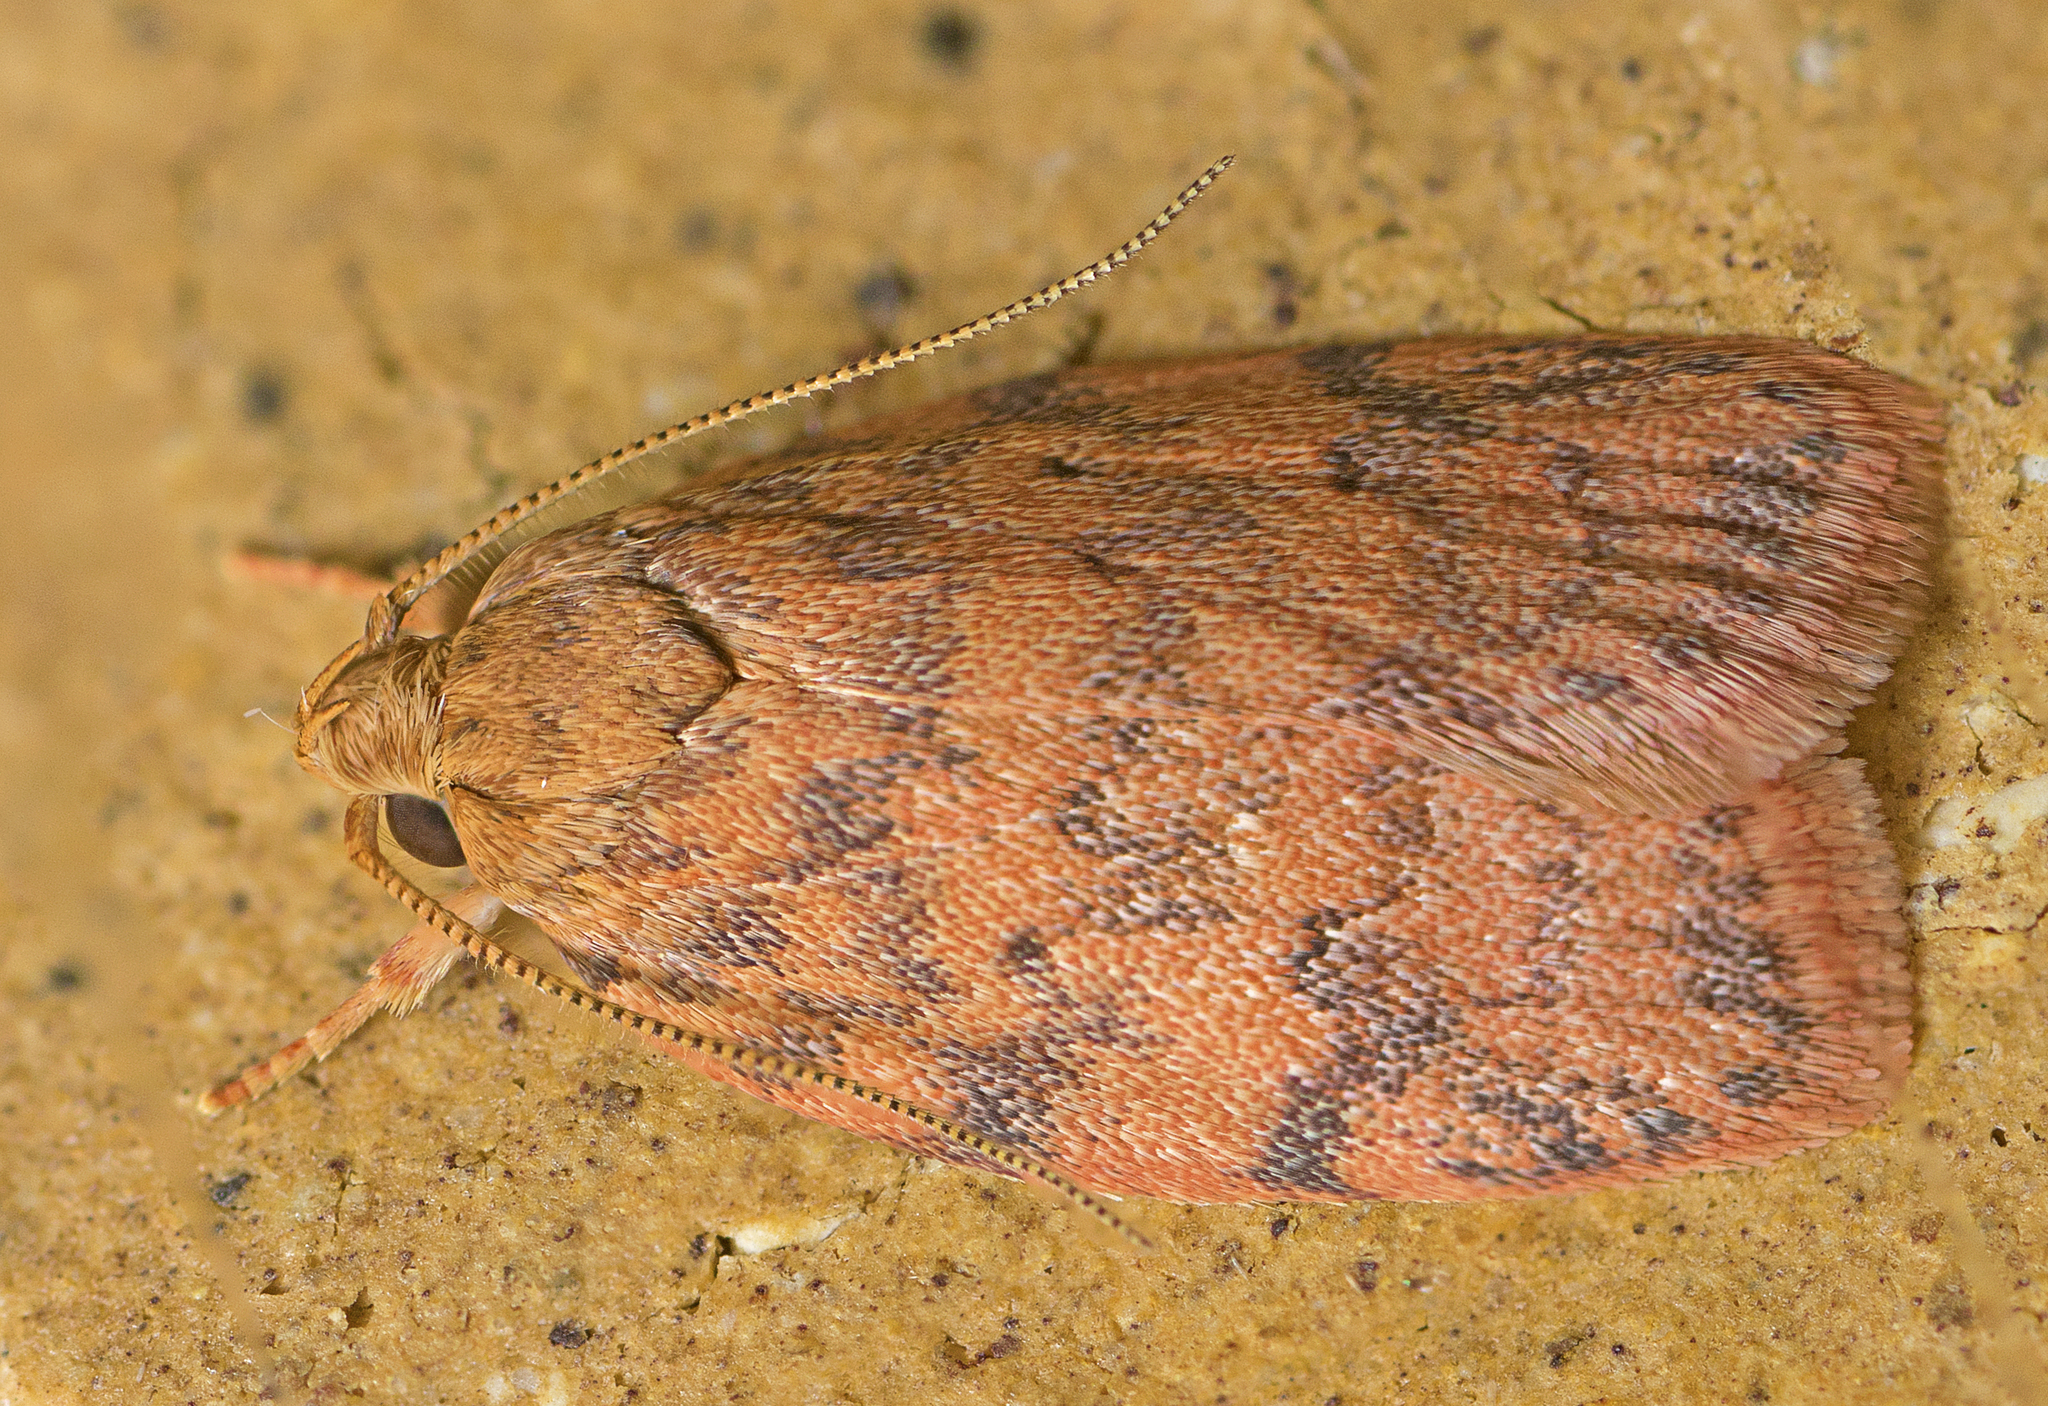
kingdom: Animalia
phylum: Arthropoda
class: Insecta
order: Lepidoptera
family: Oecophoridae
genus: Garrha
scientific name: Garrha costimacula
